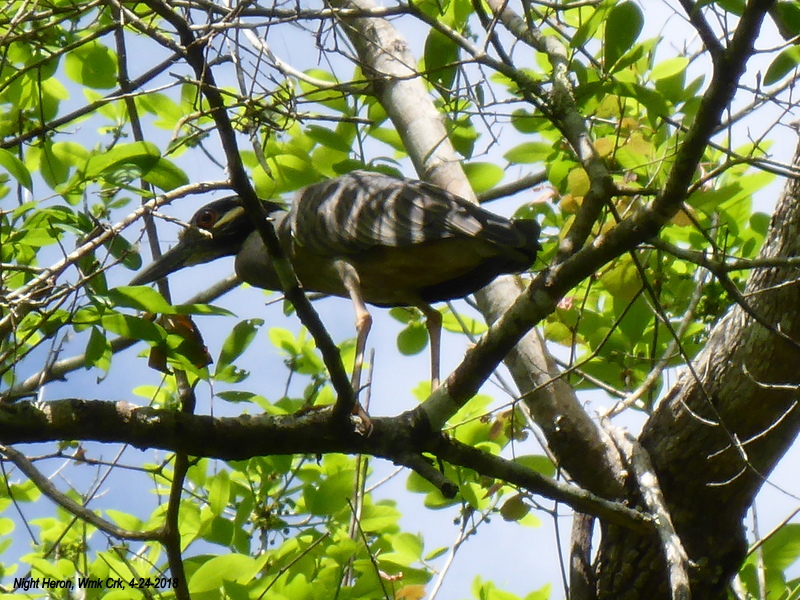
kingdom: Animalia
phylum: Chordata
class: Aves
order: Pelecaniformes
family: Ardeidae
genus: Nyctanassa
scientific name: Nyctanassa violacea
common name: Yellow-crowned night heron
